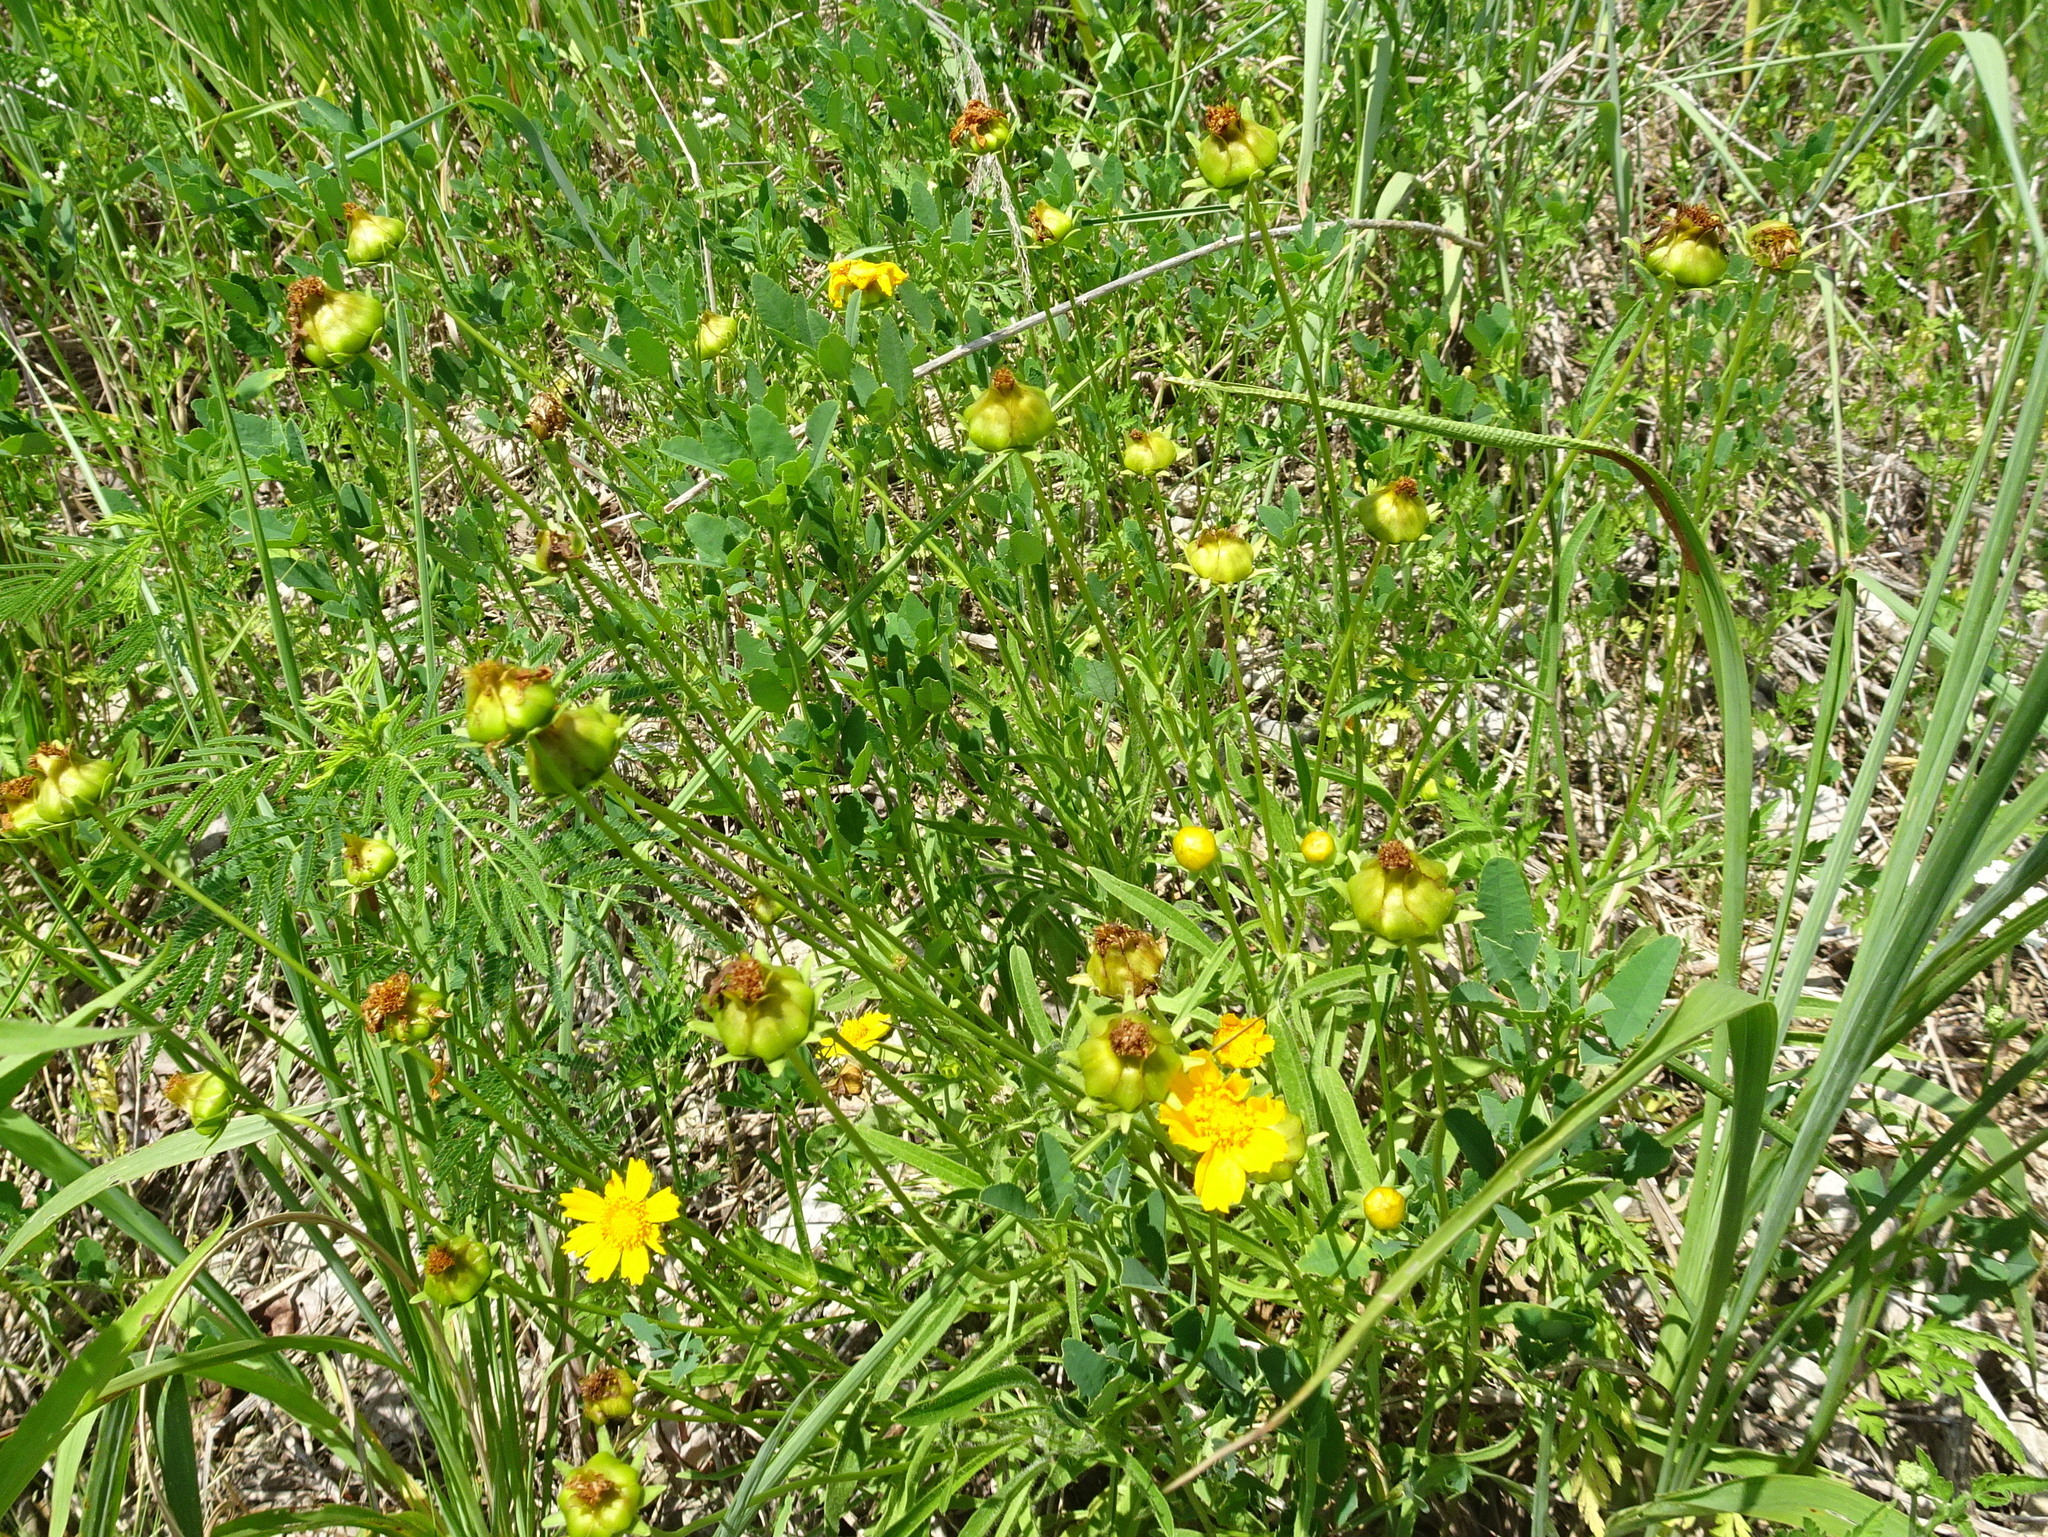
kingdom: Plantae
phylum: Tracheophyta
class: Magnoliopsida
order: Asterales
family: Asteraceae
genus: Coreopsis
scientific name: Coreopsis lanceolata
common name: Garden coreopsis
